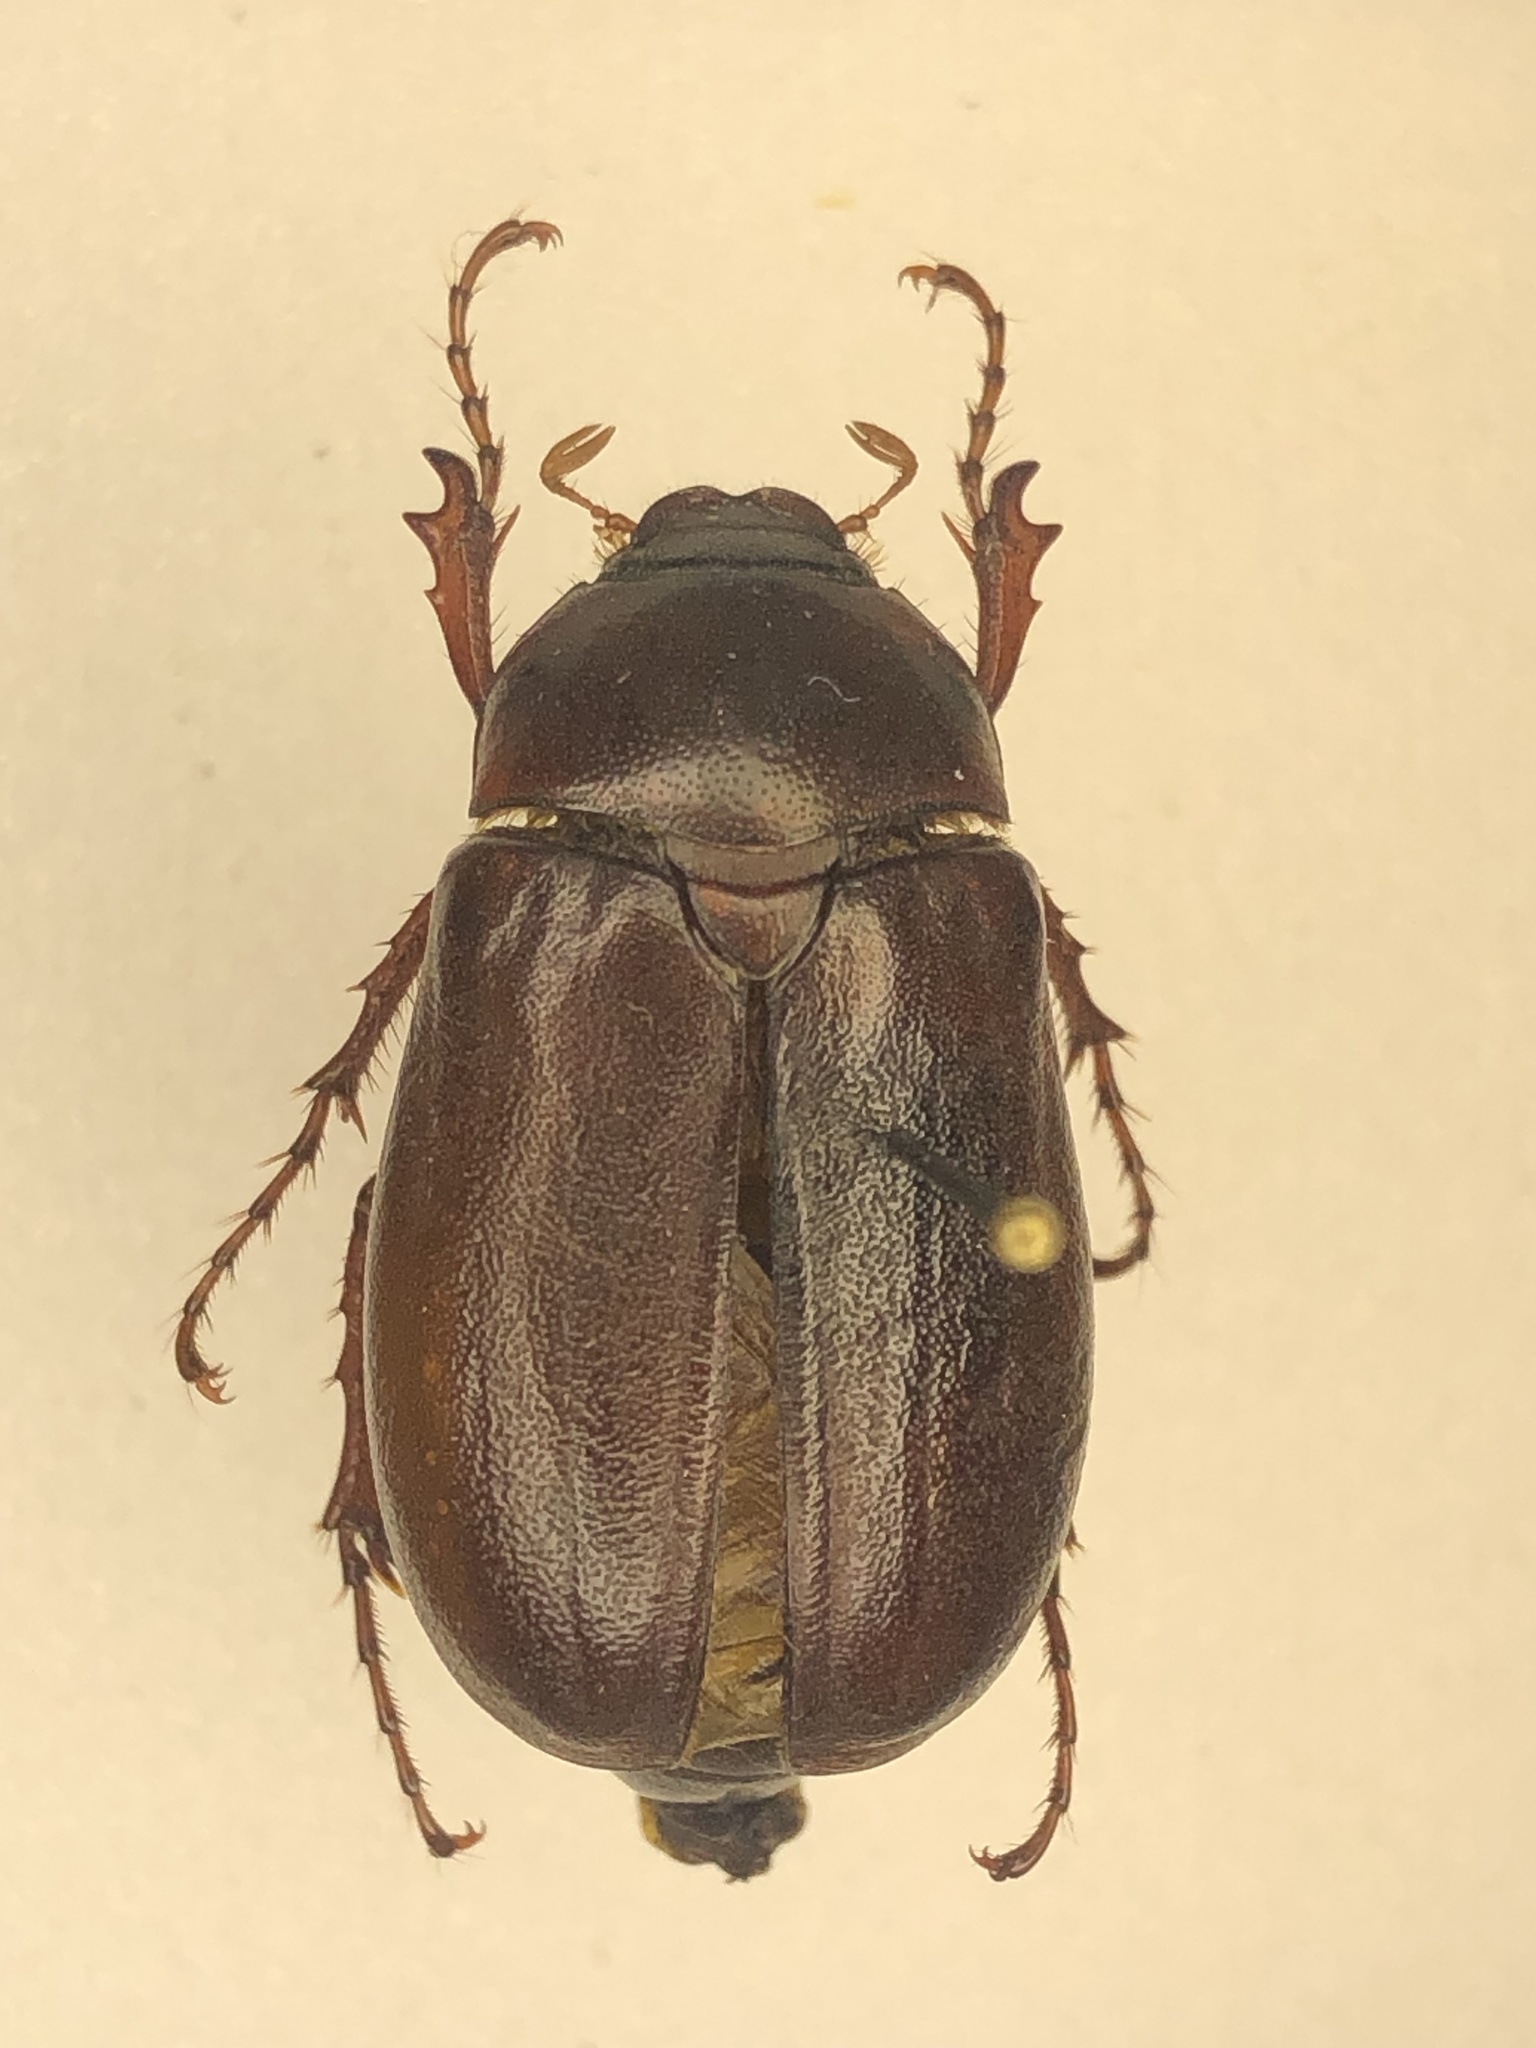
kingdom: Animalia
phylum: Arthropoda
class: Insecta
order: Coleoptera
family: Scarabaeidae
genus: Phyllophaga
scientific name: Phyllophaga drakii
